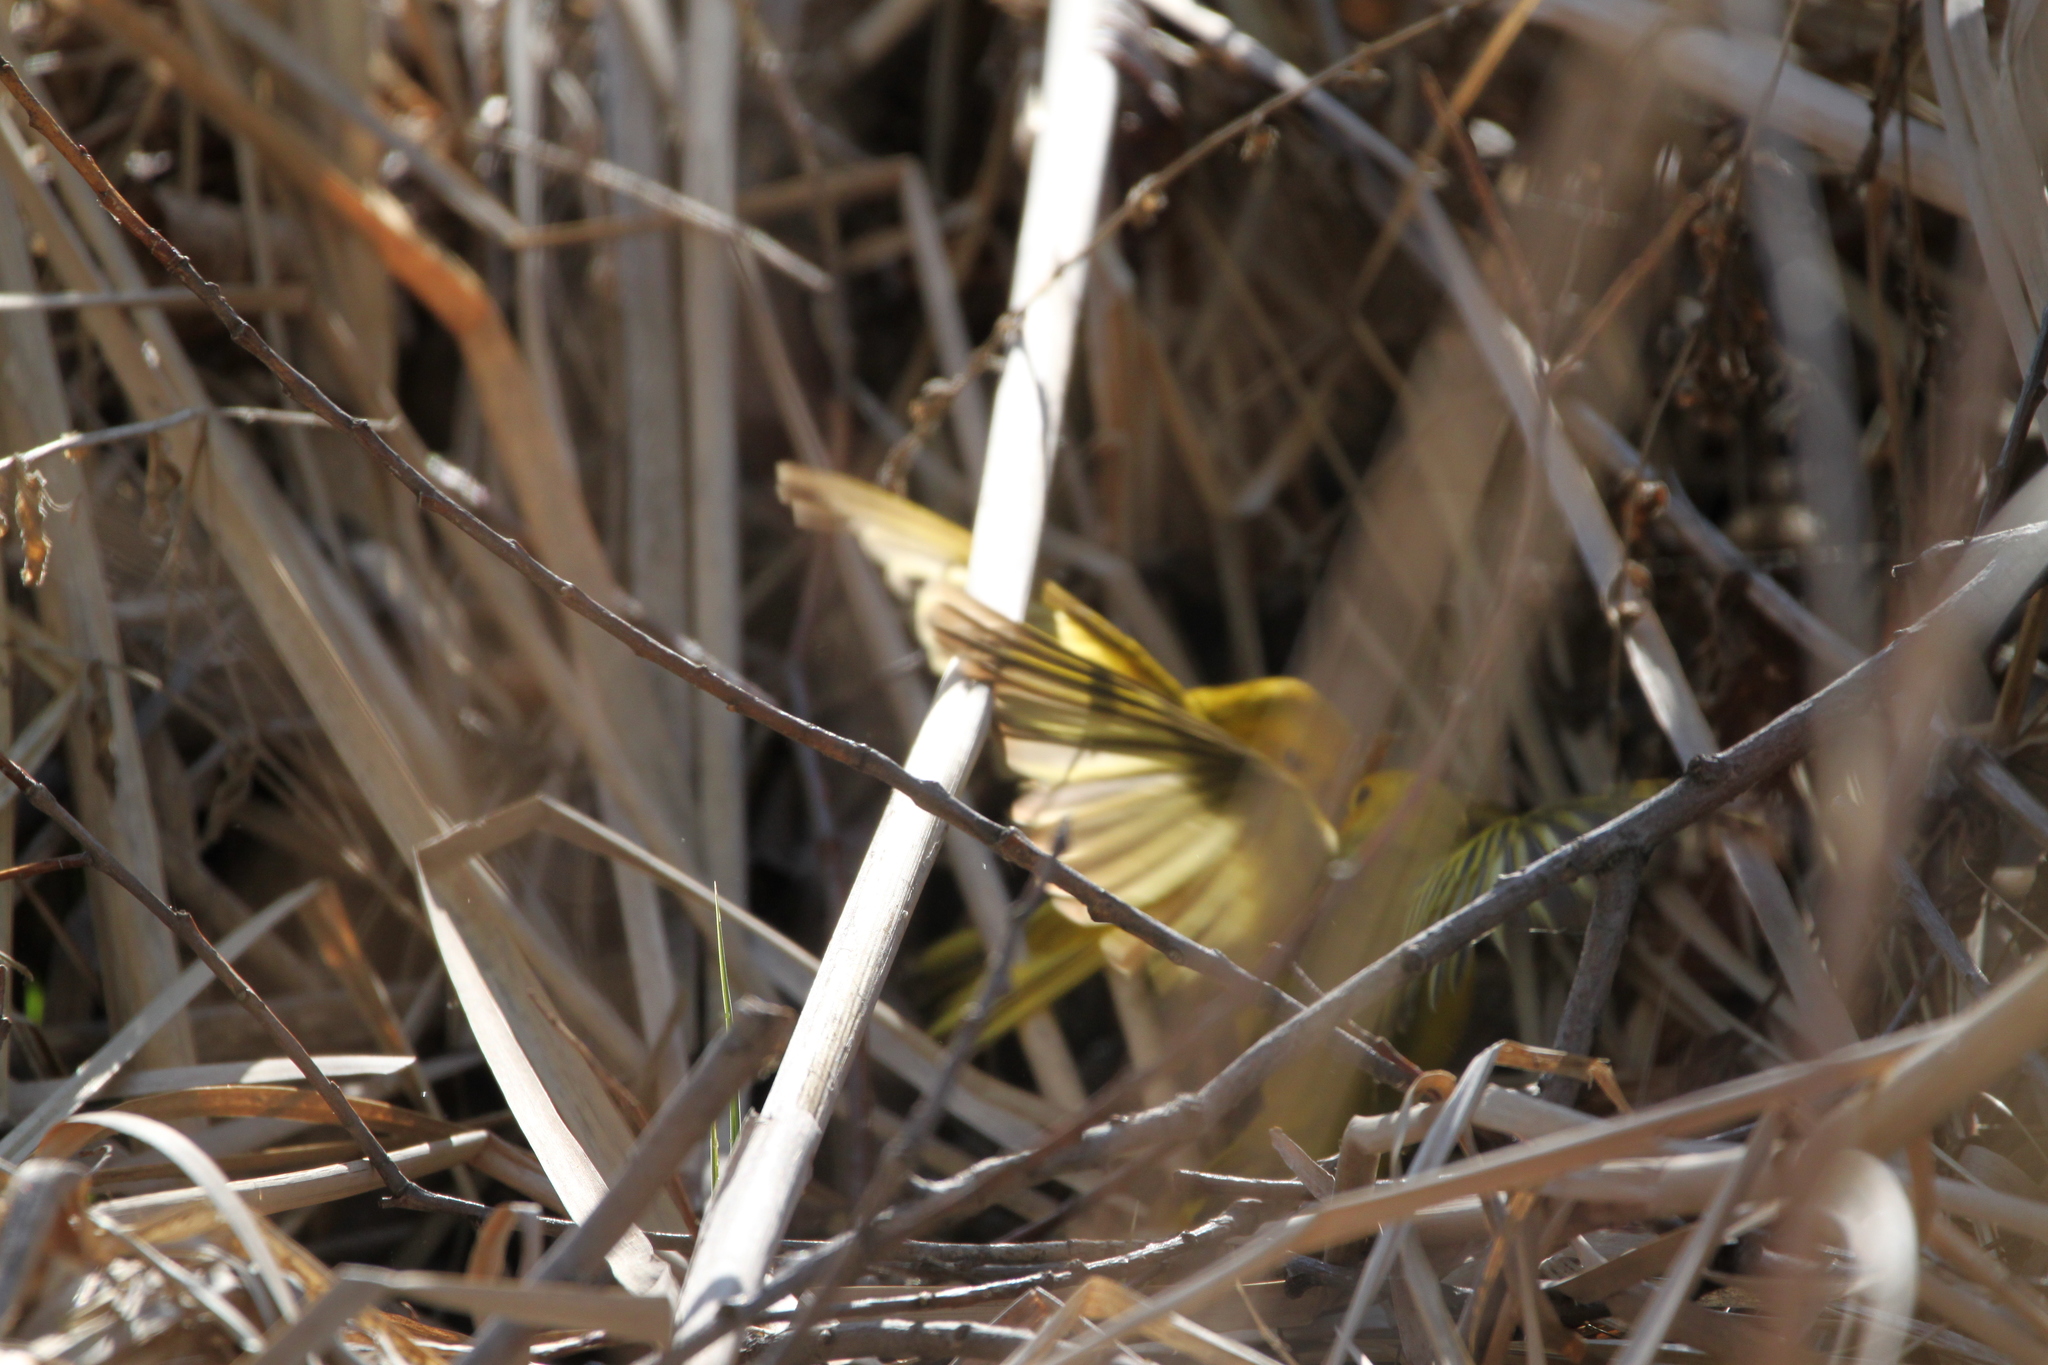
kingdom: Animalia
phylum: Chordata
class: Aves
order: Passeriformes
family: Parulidae
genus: Setophaga
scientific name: Setophaga petechia
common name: Yellow warbler
